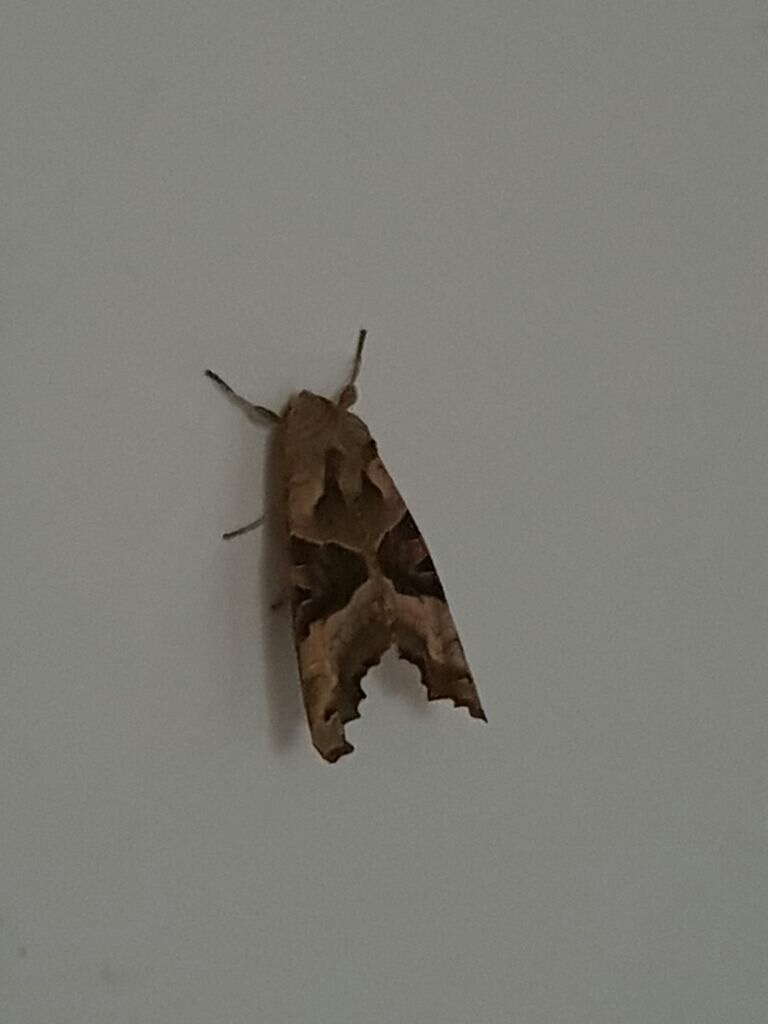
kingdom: Animalia
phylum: Arthropoda
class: Insecta
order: Lepidoptera
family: Noctuidae
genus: Phlogophora
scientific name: Phlogophora meticulosa
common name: Angle shades
